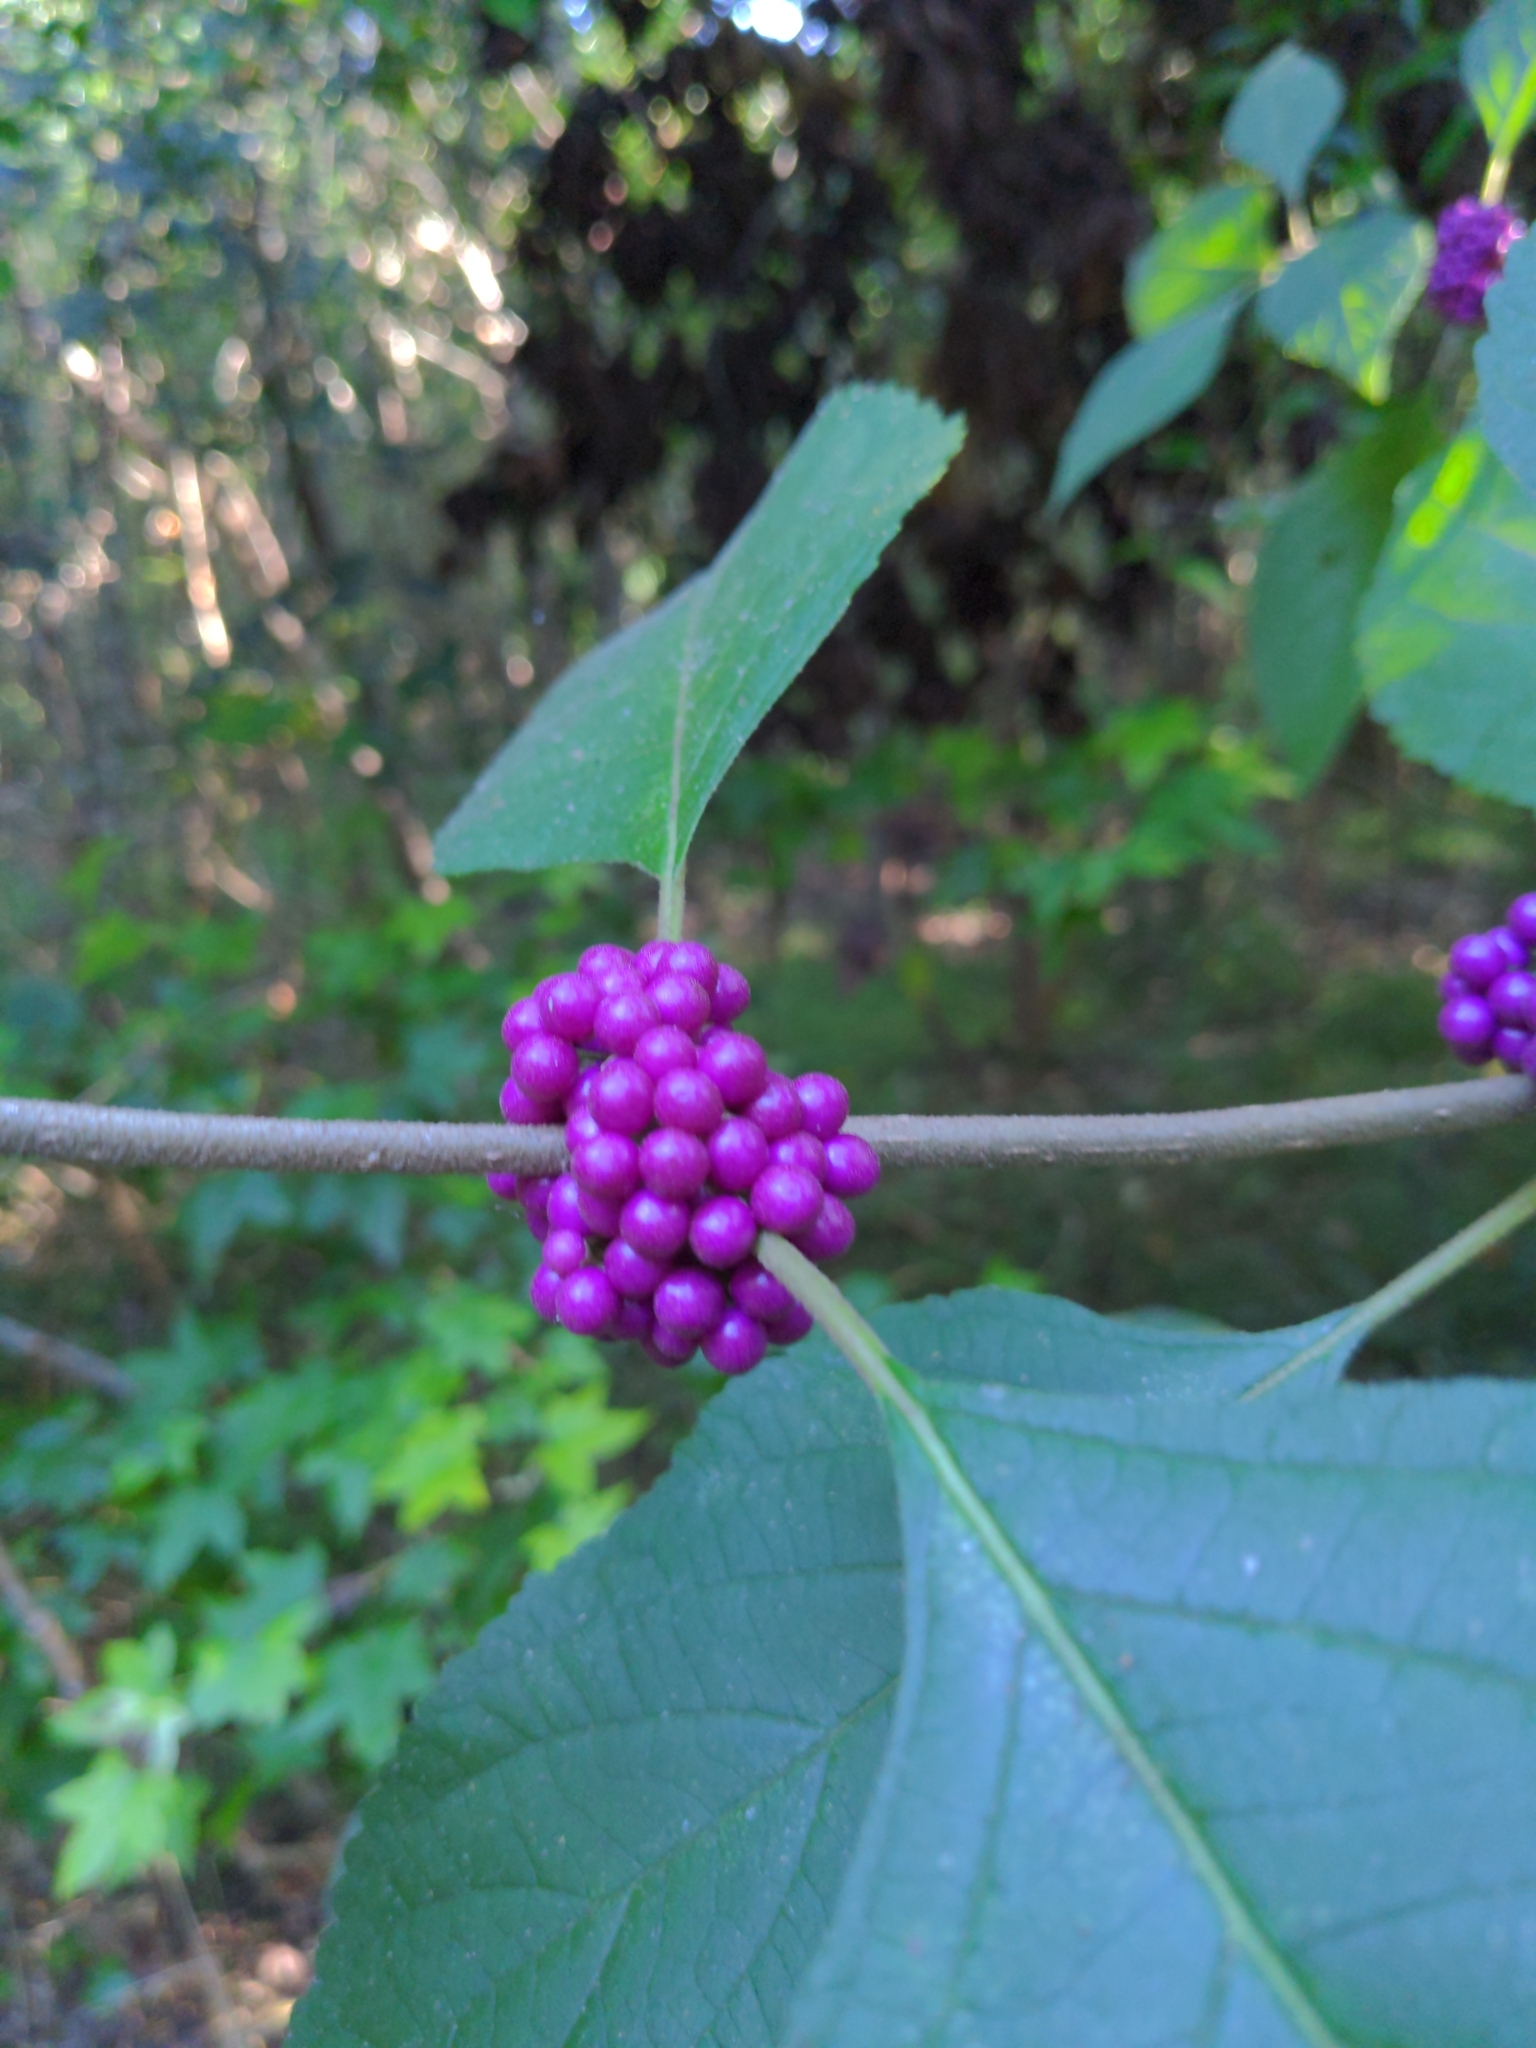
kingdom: Plantae
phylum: Tracheophyta
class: Magnoliopsida
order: Lamiales
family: Lamiaceae
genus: Callicarpa
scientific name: Callicarpa americana
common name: American beautyberry
